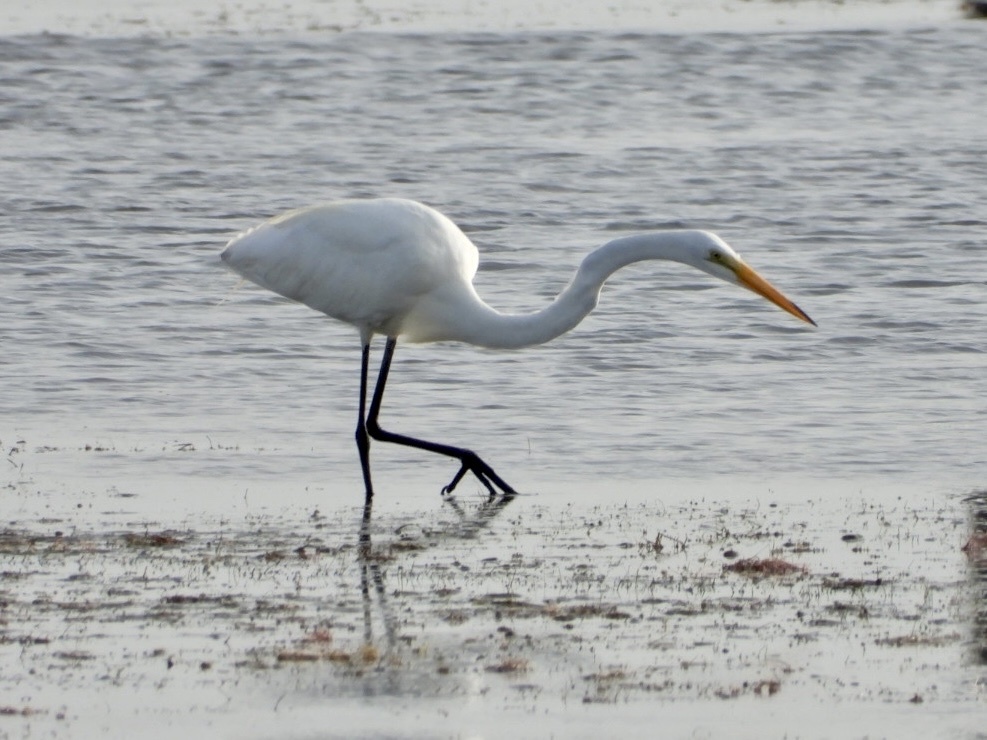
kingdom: Animalia
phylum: Chordata
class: Aves
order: Pelecaniformes
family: Ardeidae
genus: Ardea
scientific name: Ardea alba
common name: Great egret
